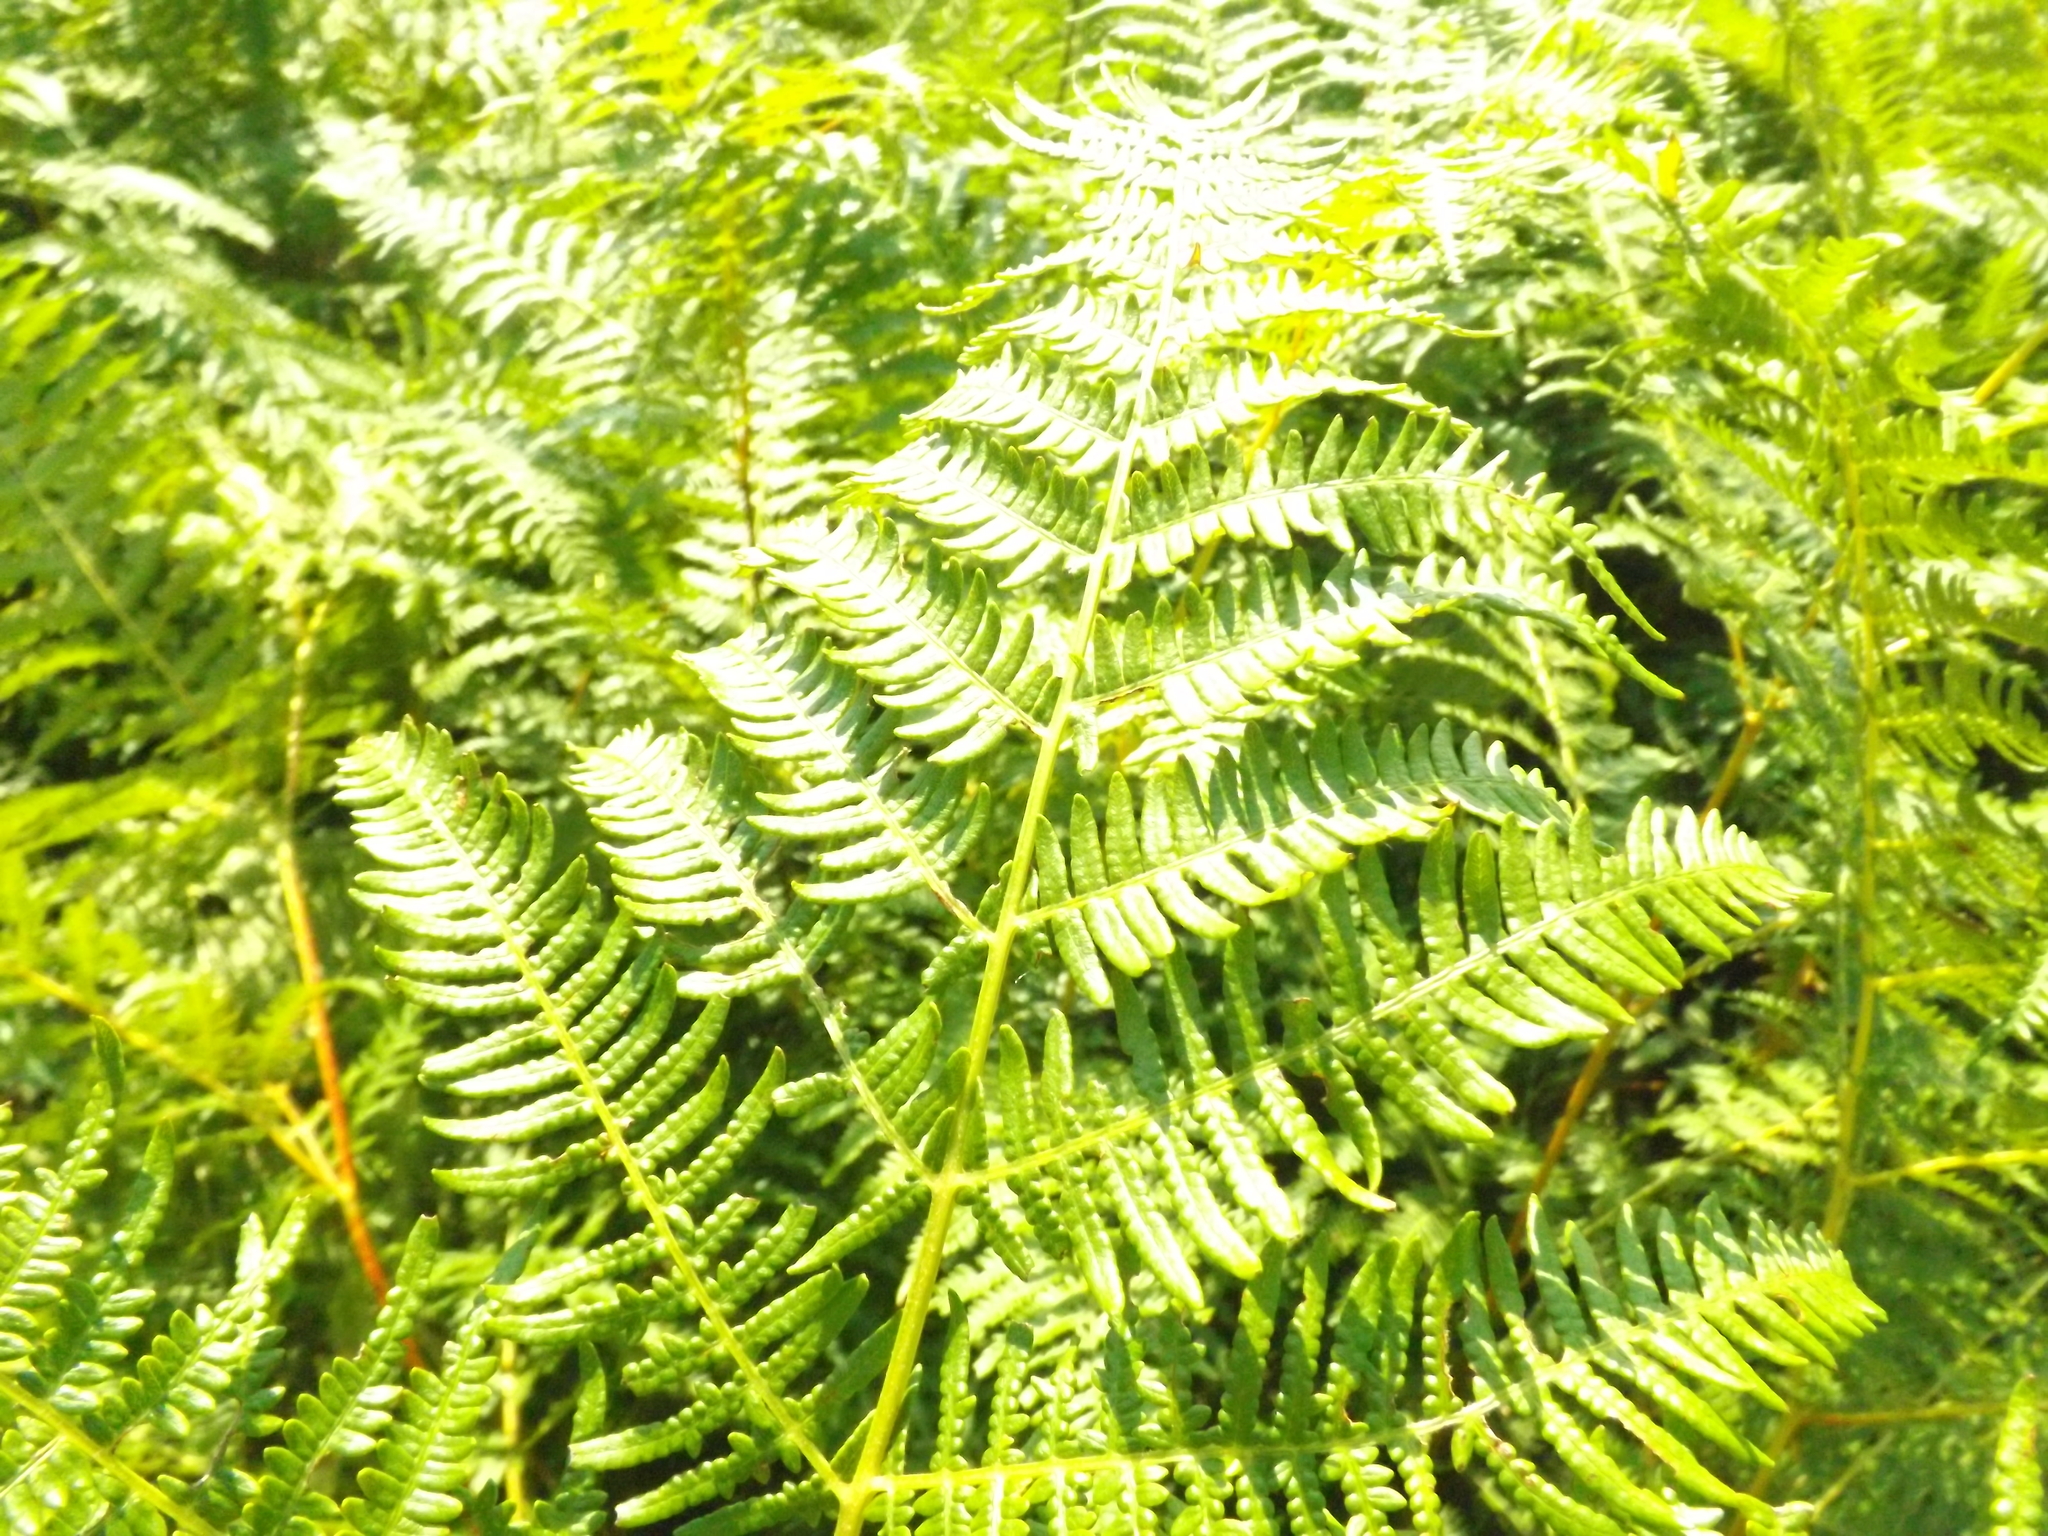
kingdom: Plantae
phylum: Tracheophyta
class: Polypodiopsida
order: Polypodiales
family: Dennstaedtiaceae
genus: Pteridium
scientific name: Pteridium aquilinum
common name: Bracken
